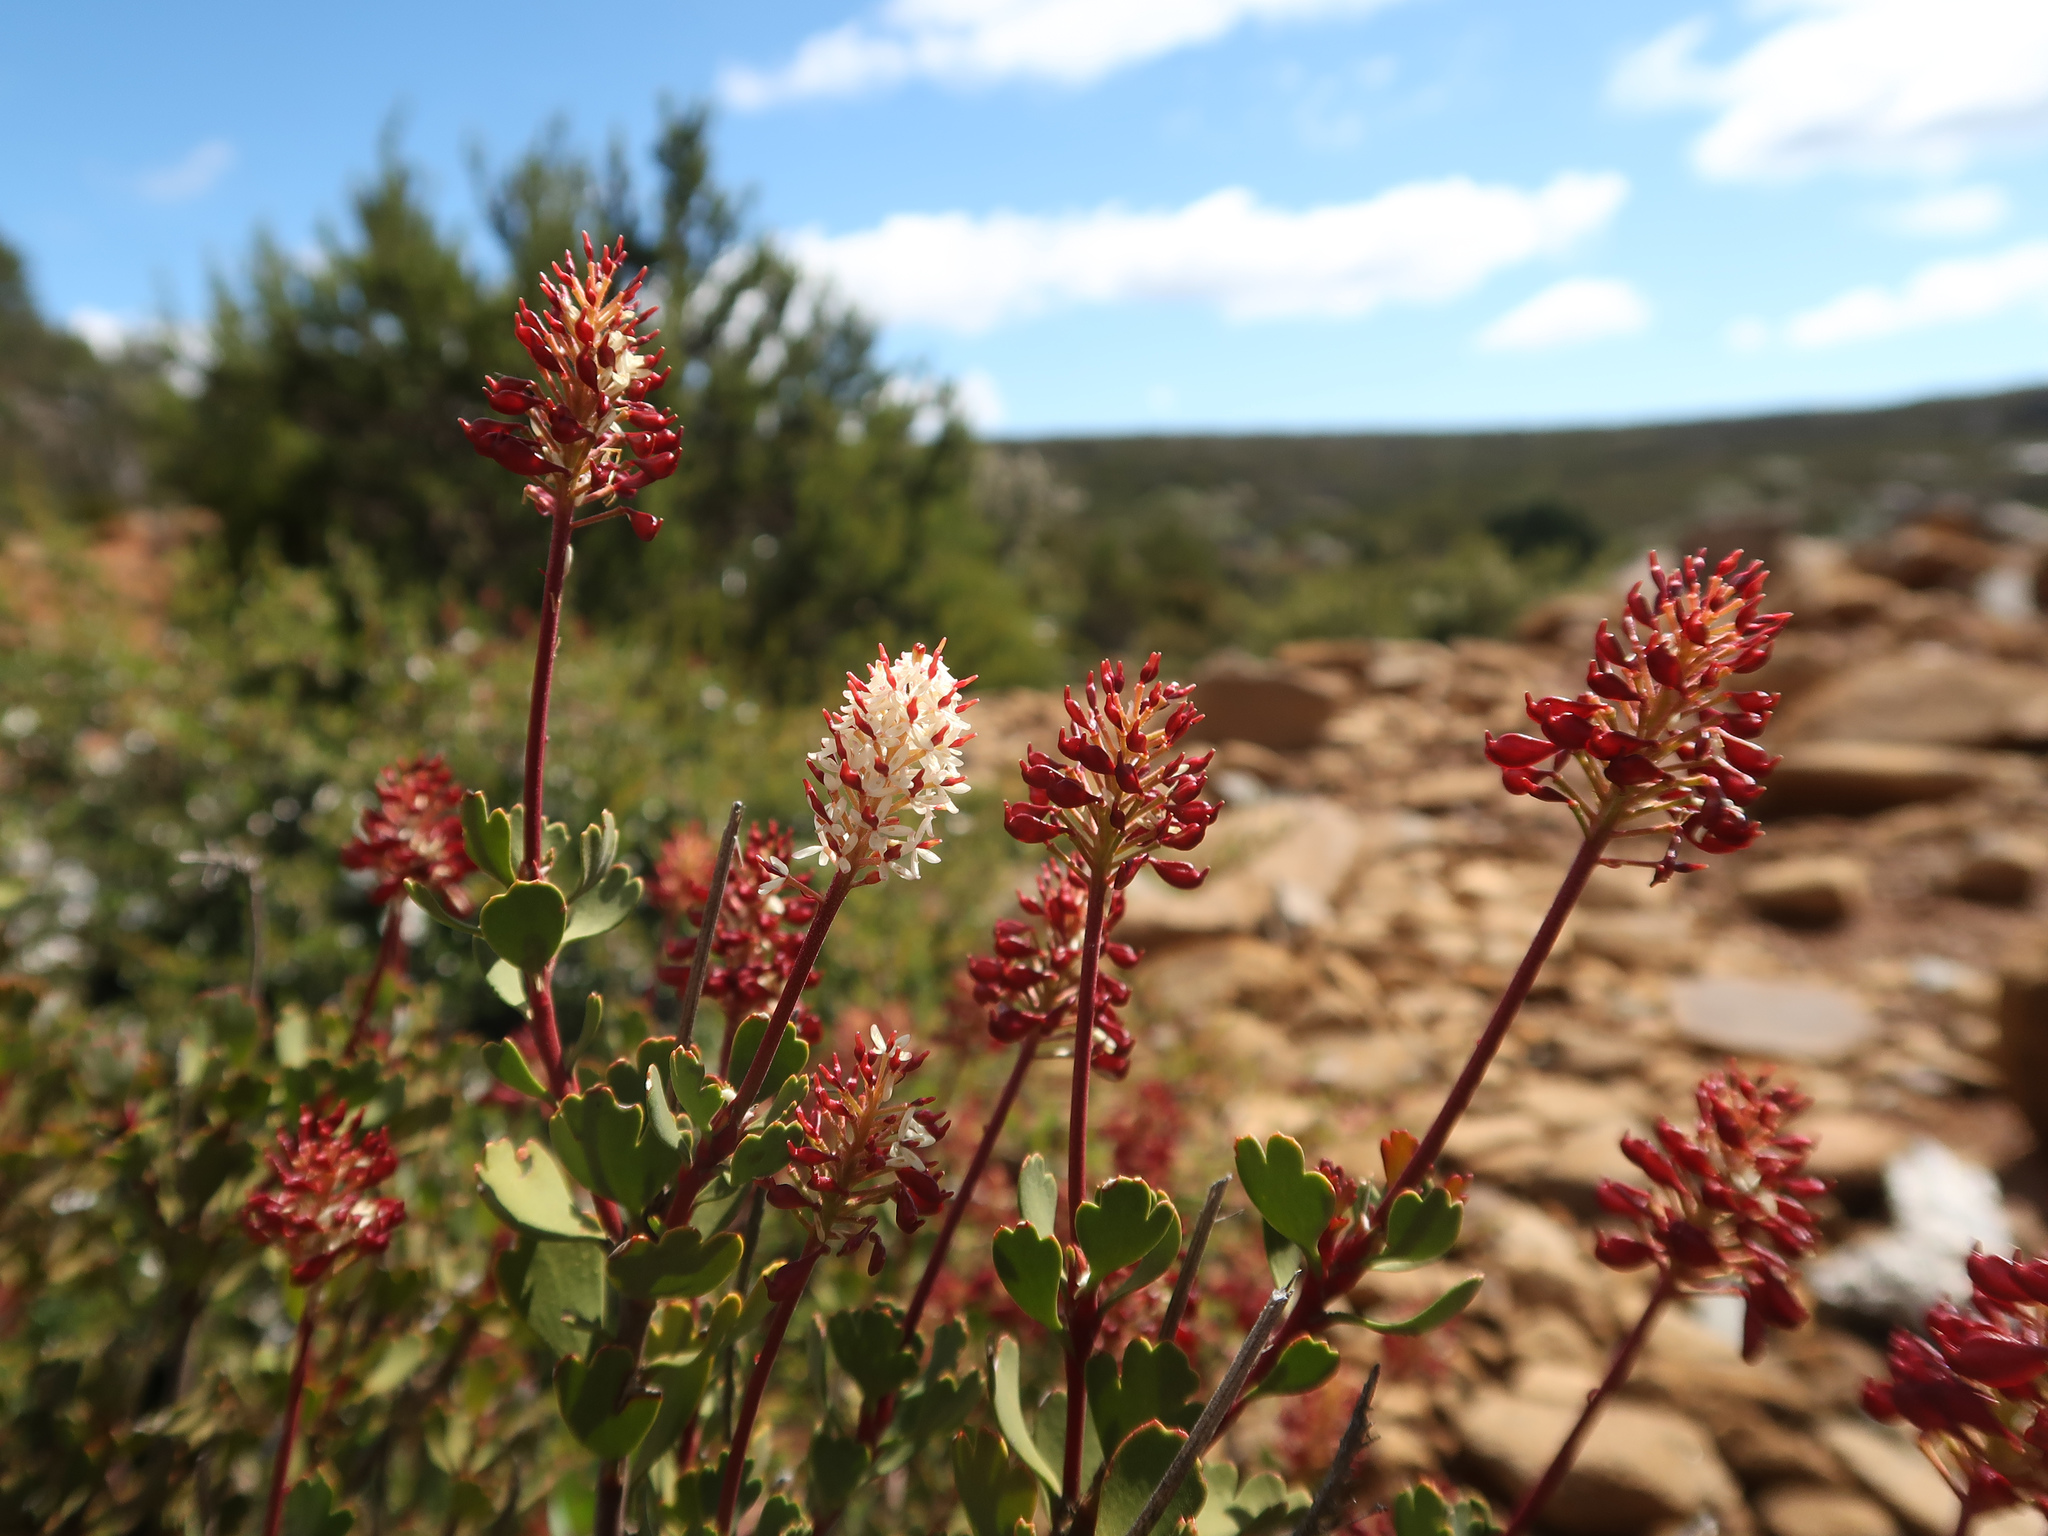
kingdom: Plantae
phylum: Tracheophyta
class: Magnoliopsida
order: Proteales
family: Proteaceae
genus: Bellendena
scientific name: Bellendena montana
